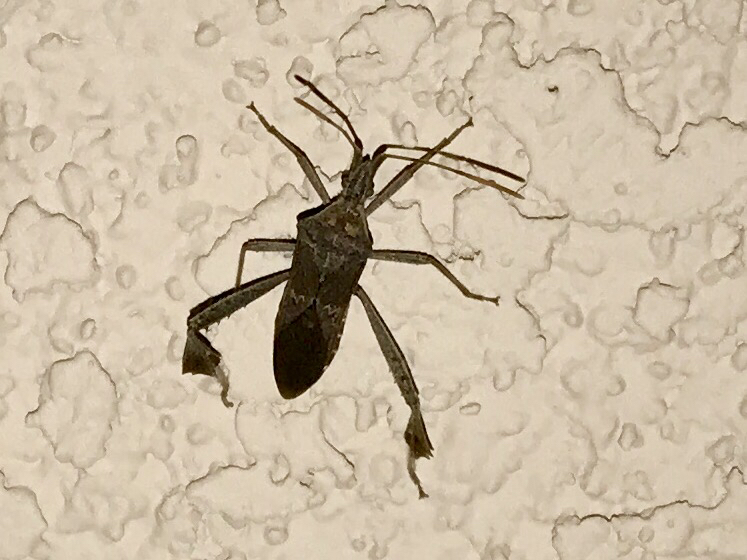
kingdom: Animalia
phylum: Arthropoda
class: Insecta
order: Hemiptera
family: Coreidae
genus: Leptoglossus
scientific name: Leptoglossus zonatus
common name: Large-legged bug
